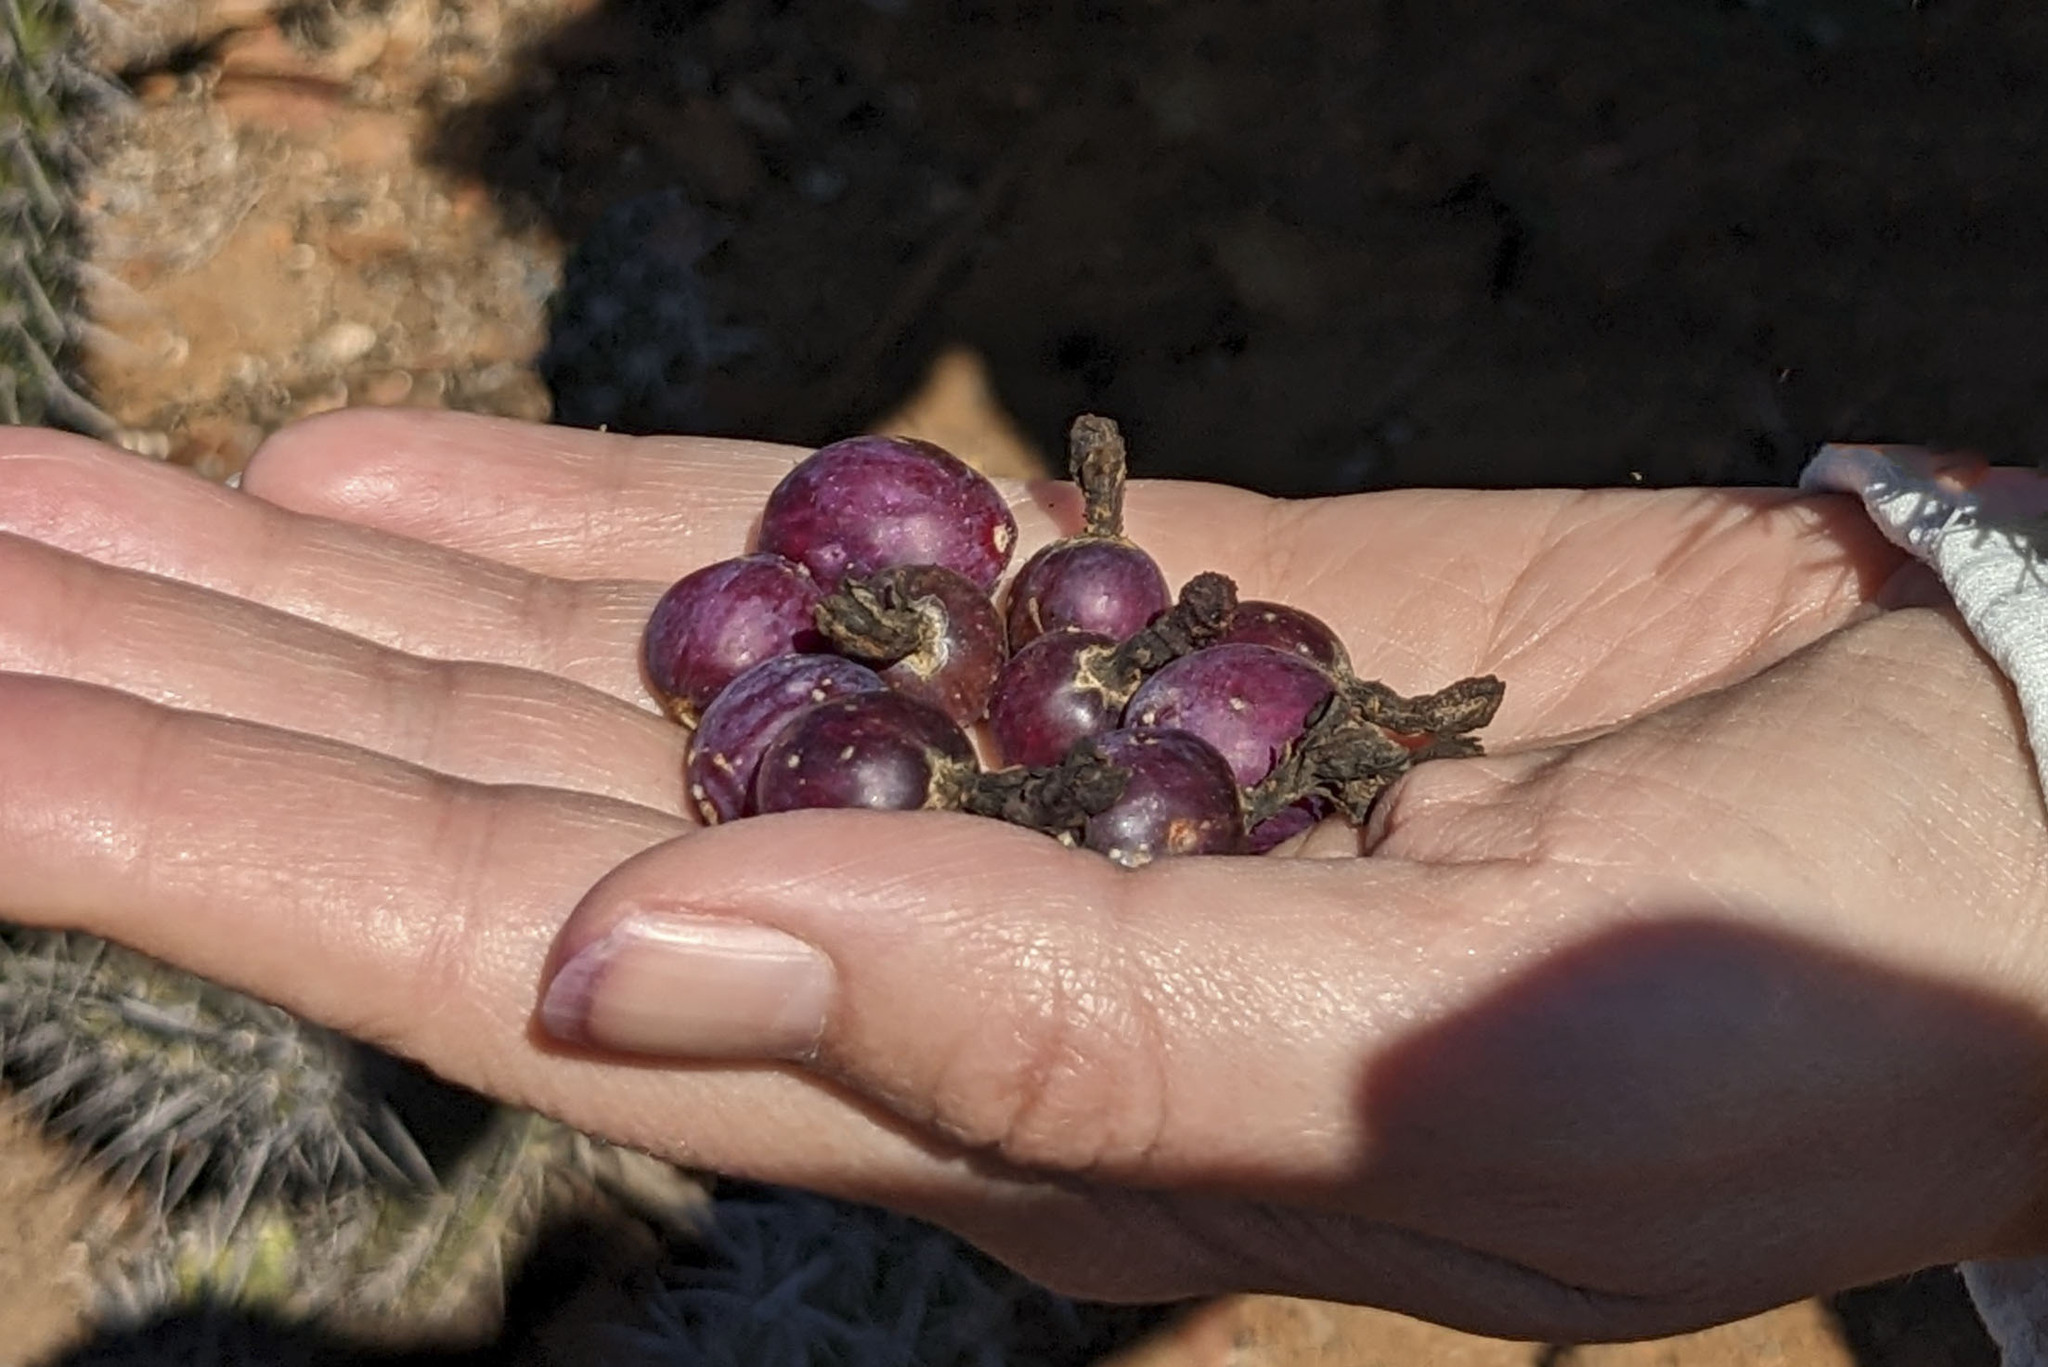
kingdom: Plantae
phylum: Tracheophyta
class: Magnoliopsida
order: Caryophyllales
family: Cactaceae
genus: Myrtillocactus
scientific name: Myrtillocactus cochal
